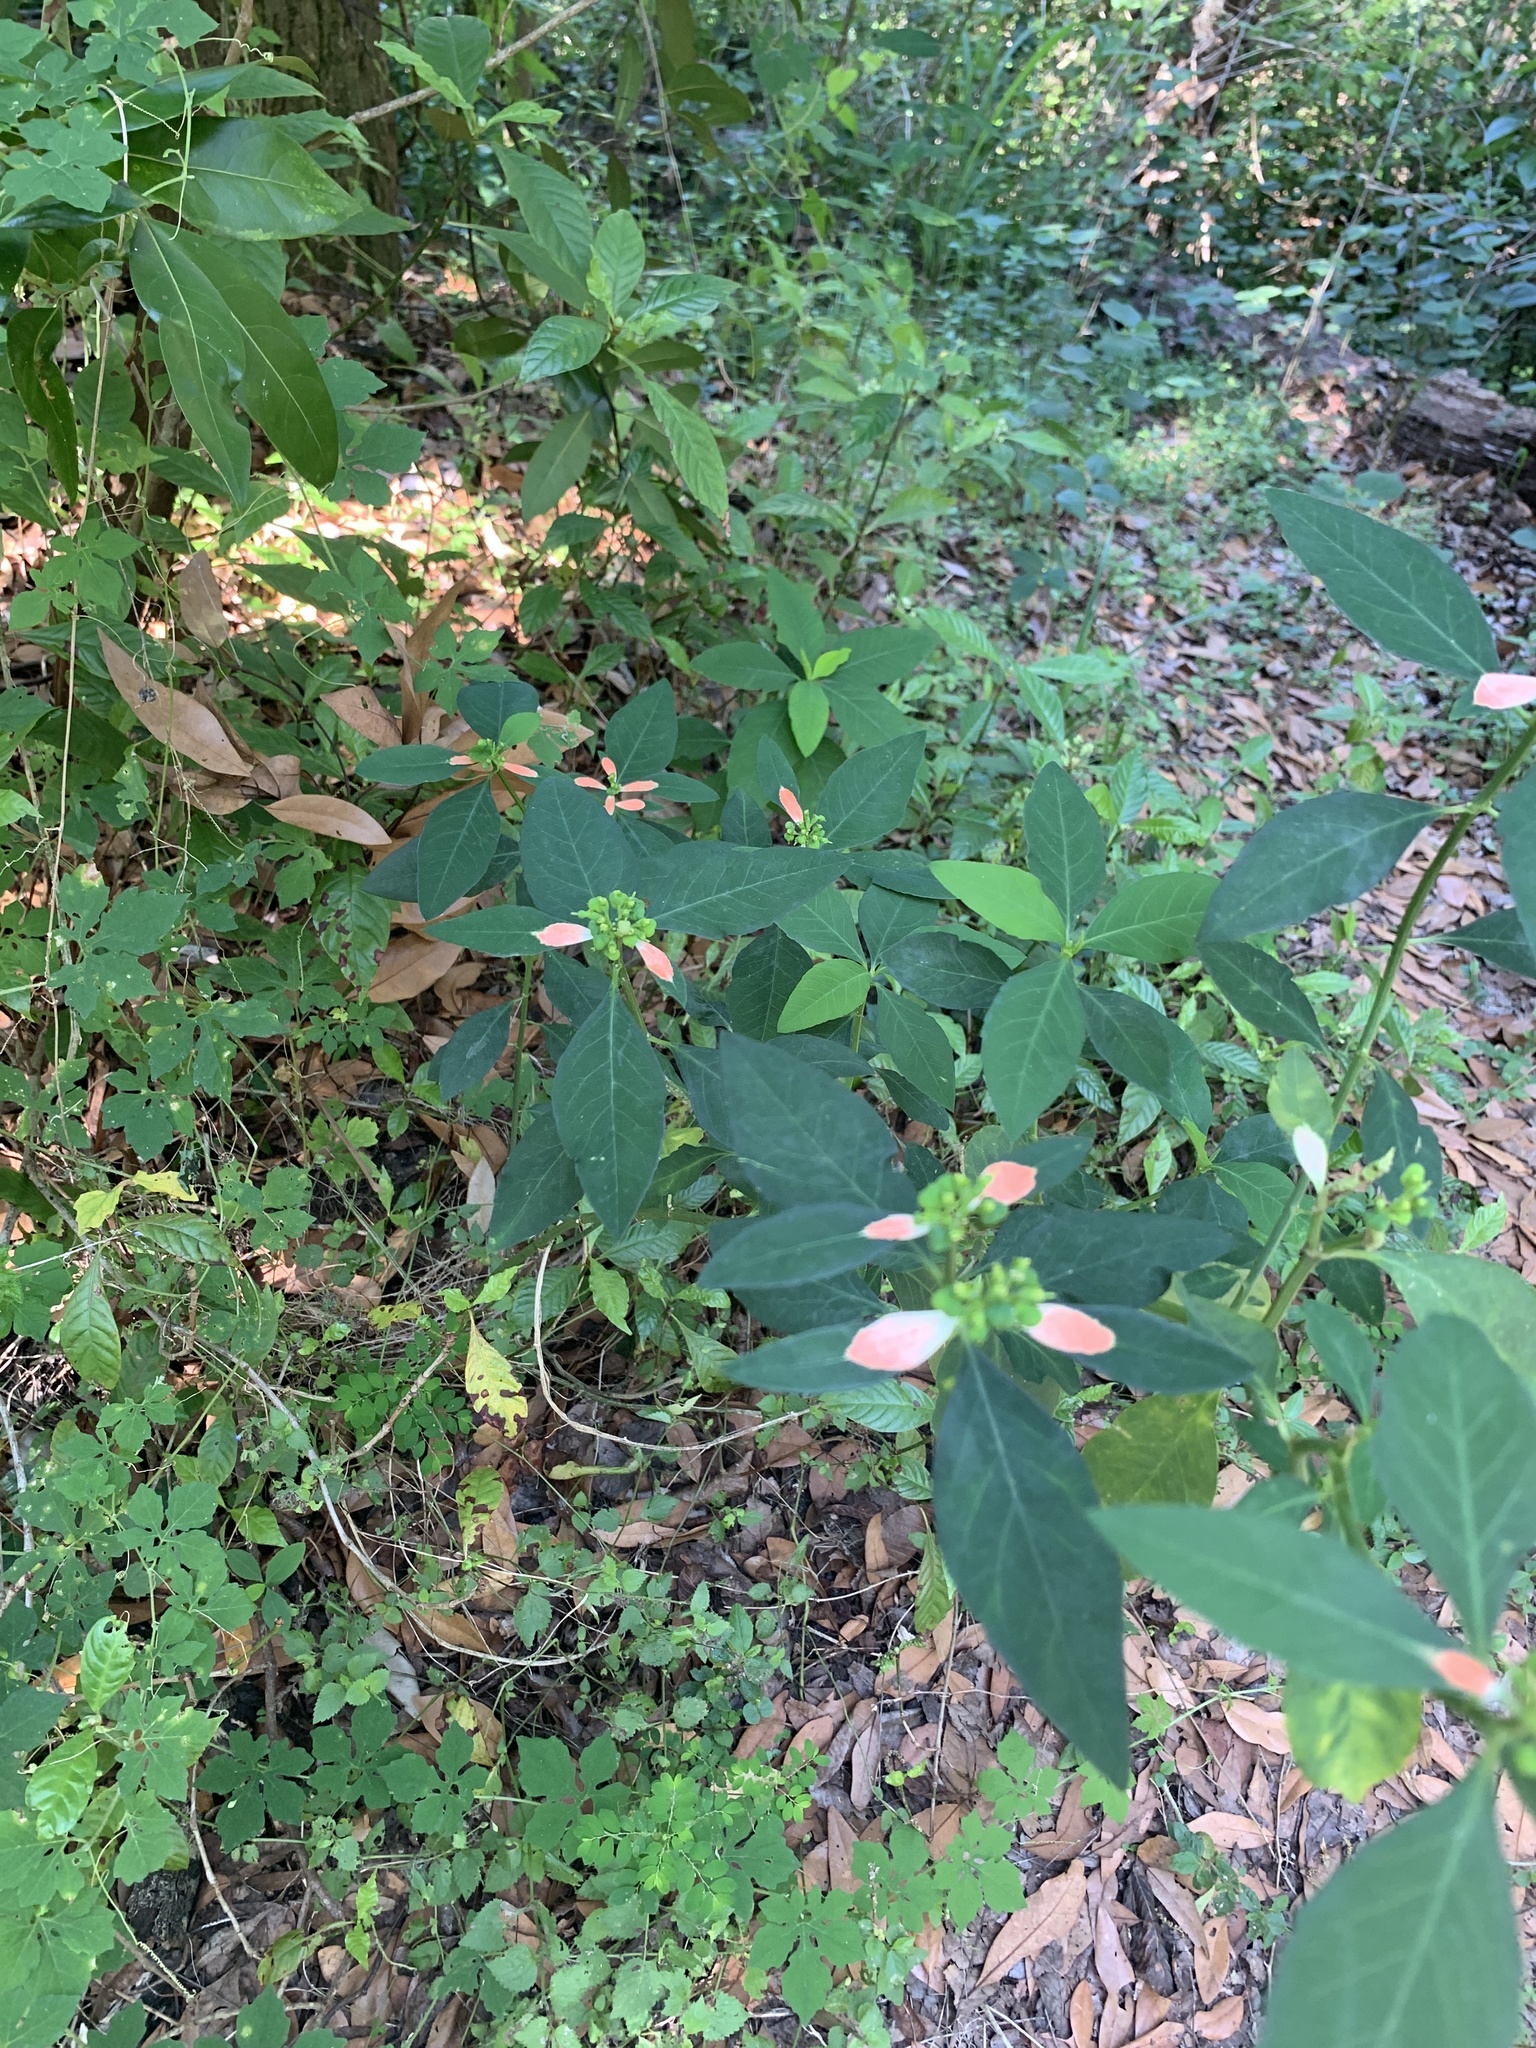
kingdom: Plantae
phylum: Tracheophyta
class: Magnoliopsida
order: Malpighiales
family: Euphorbiaceae
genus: Euphorbia
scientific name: Euphorbia heterophylla
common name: Mexican fireplant
